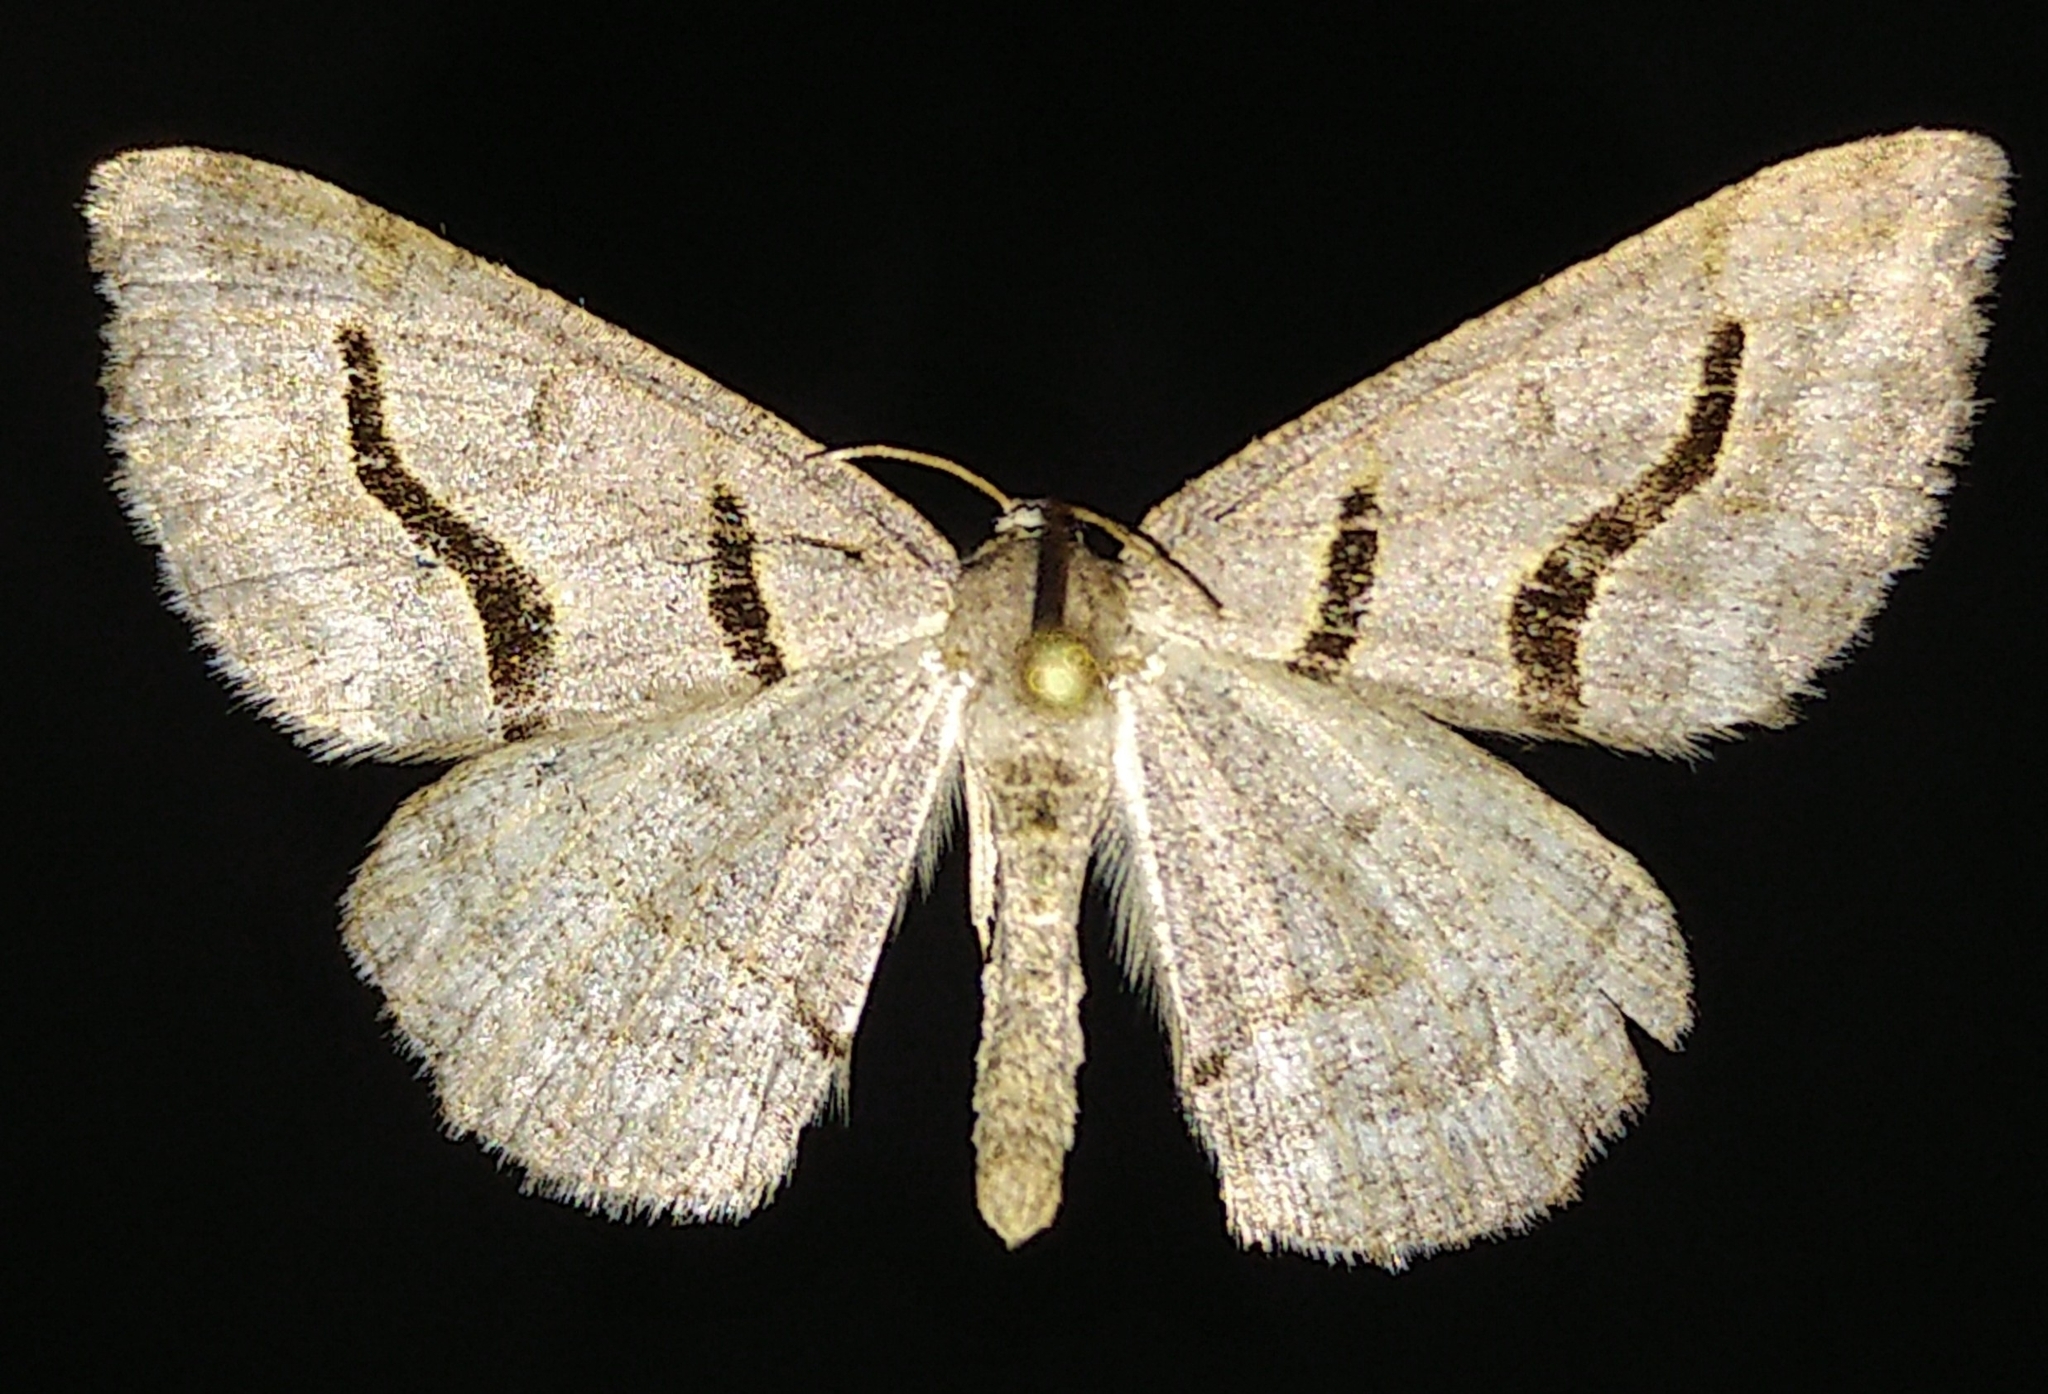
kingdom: Animalia
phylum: Arthropoda
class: Insecta
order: Lepidoptera
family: Geometridae
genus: Digrammia
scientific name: Digrammia rippertaria
